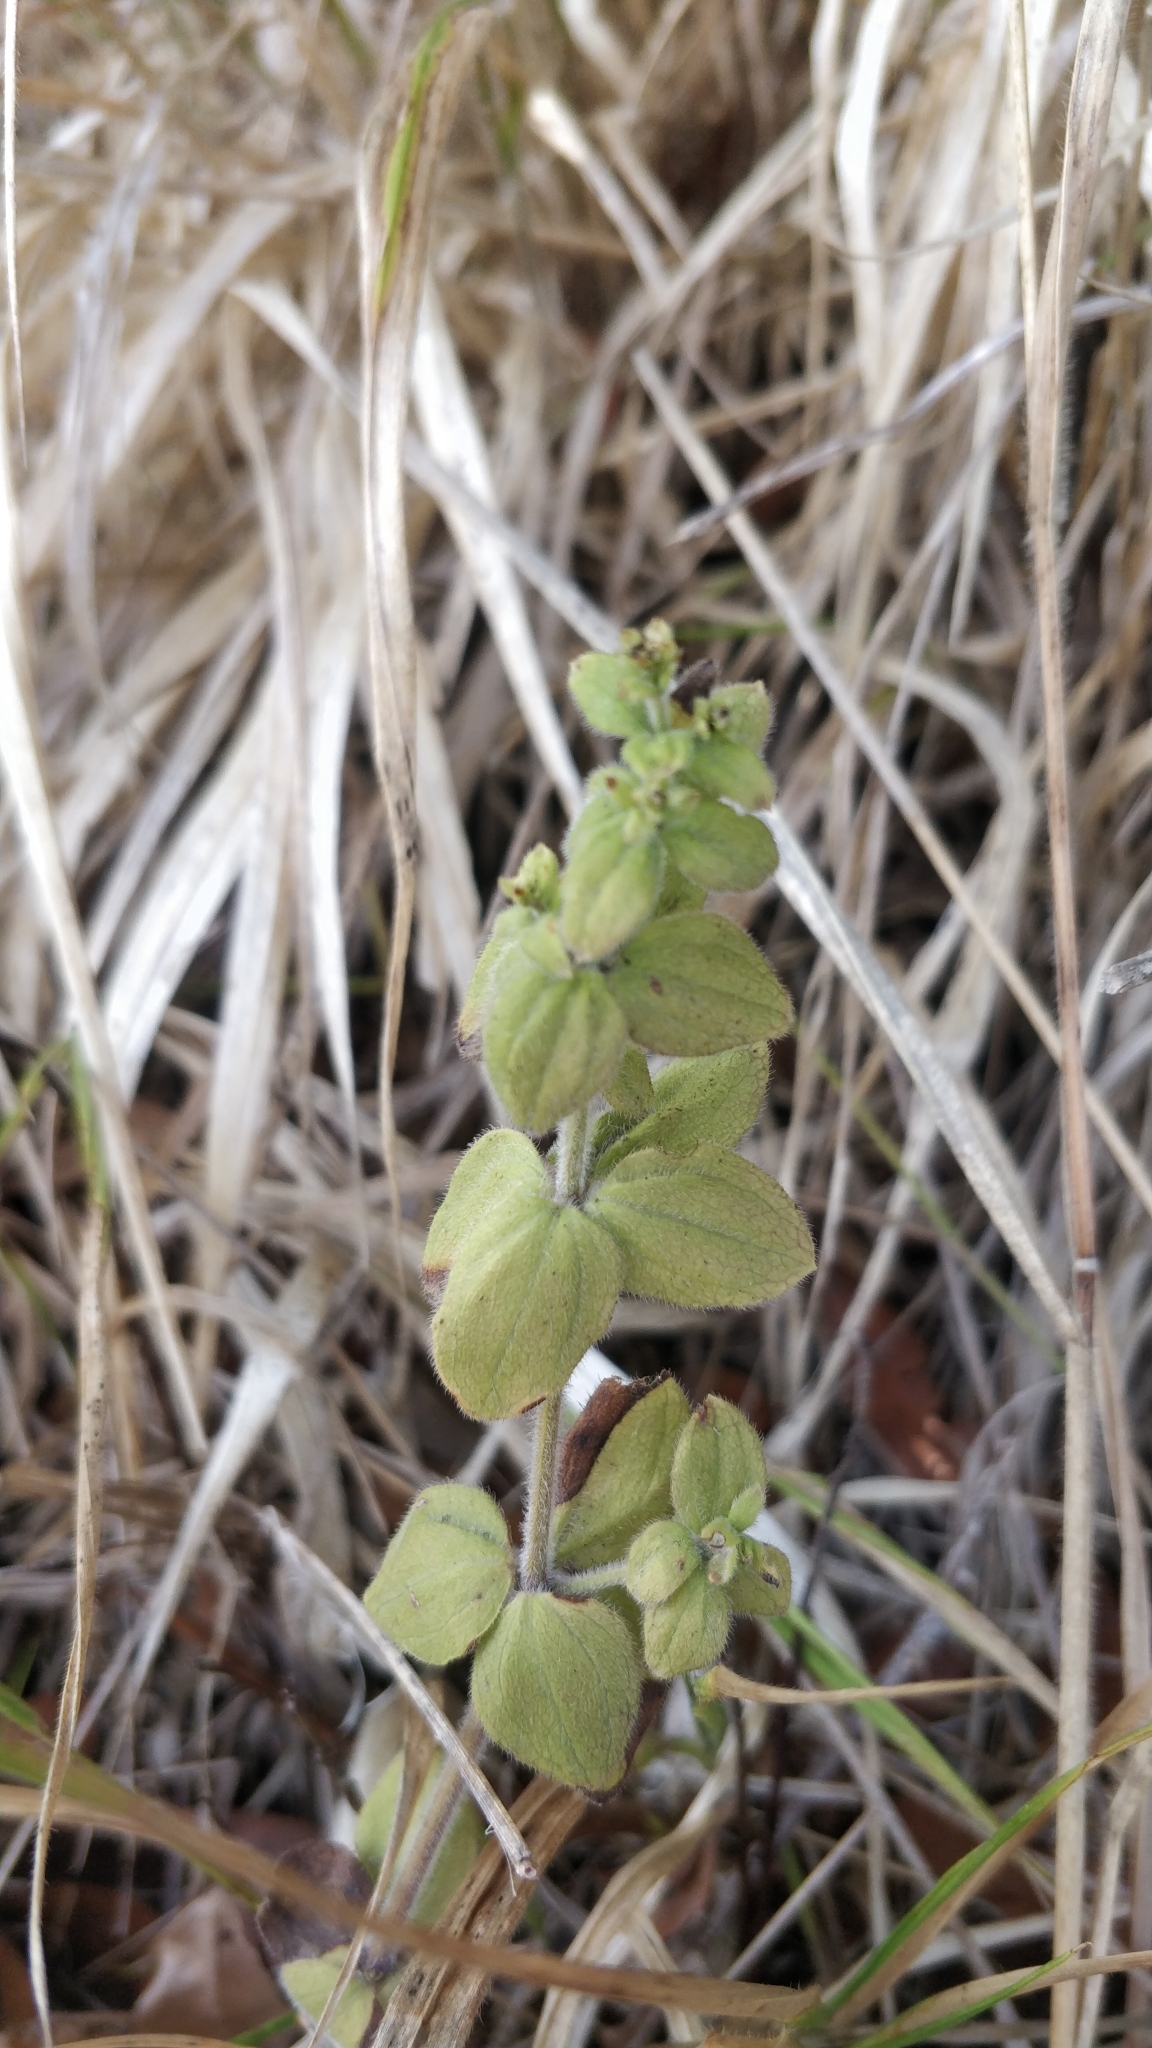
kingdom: Plantae
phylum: Tracheophyta
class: Magnoliopsida
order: Gentianales
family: Rubiaceae
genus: Galium
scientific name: Galium scabrum
